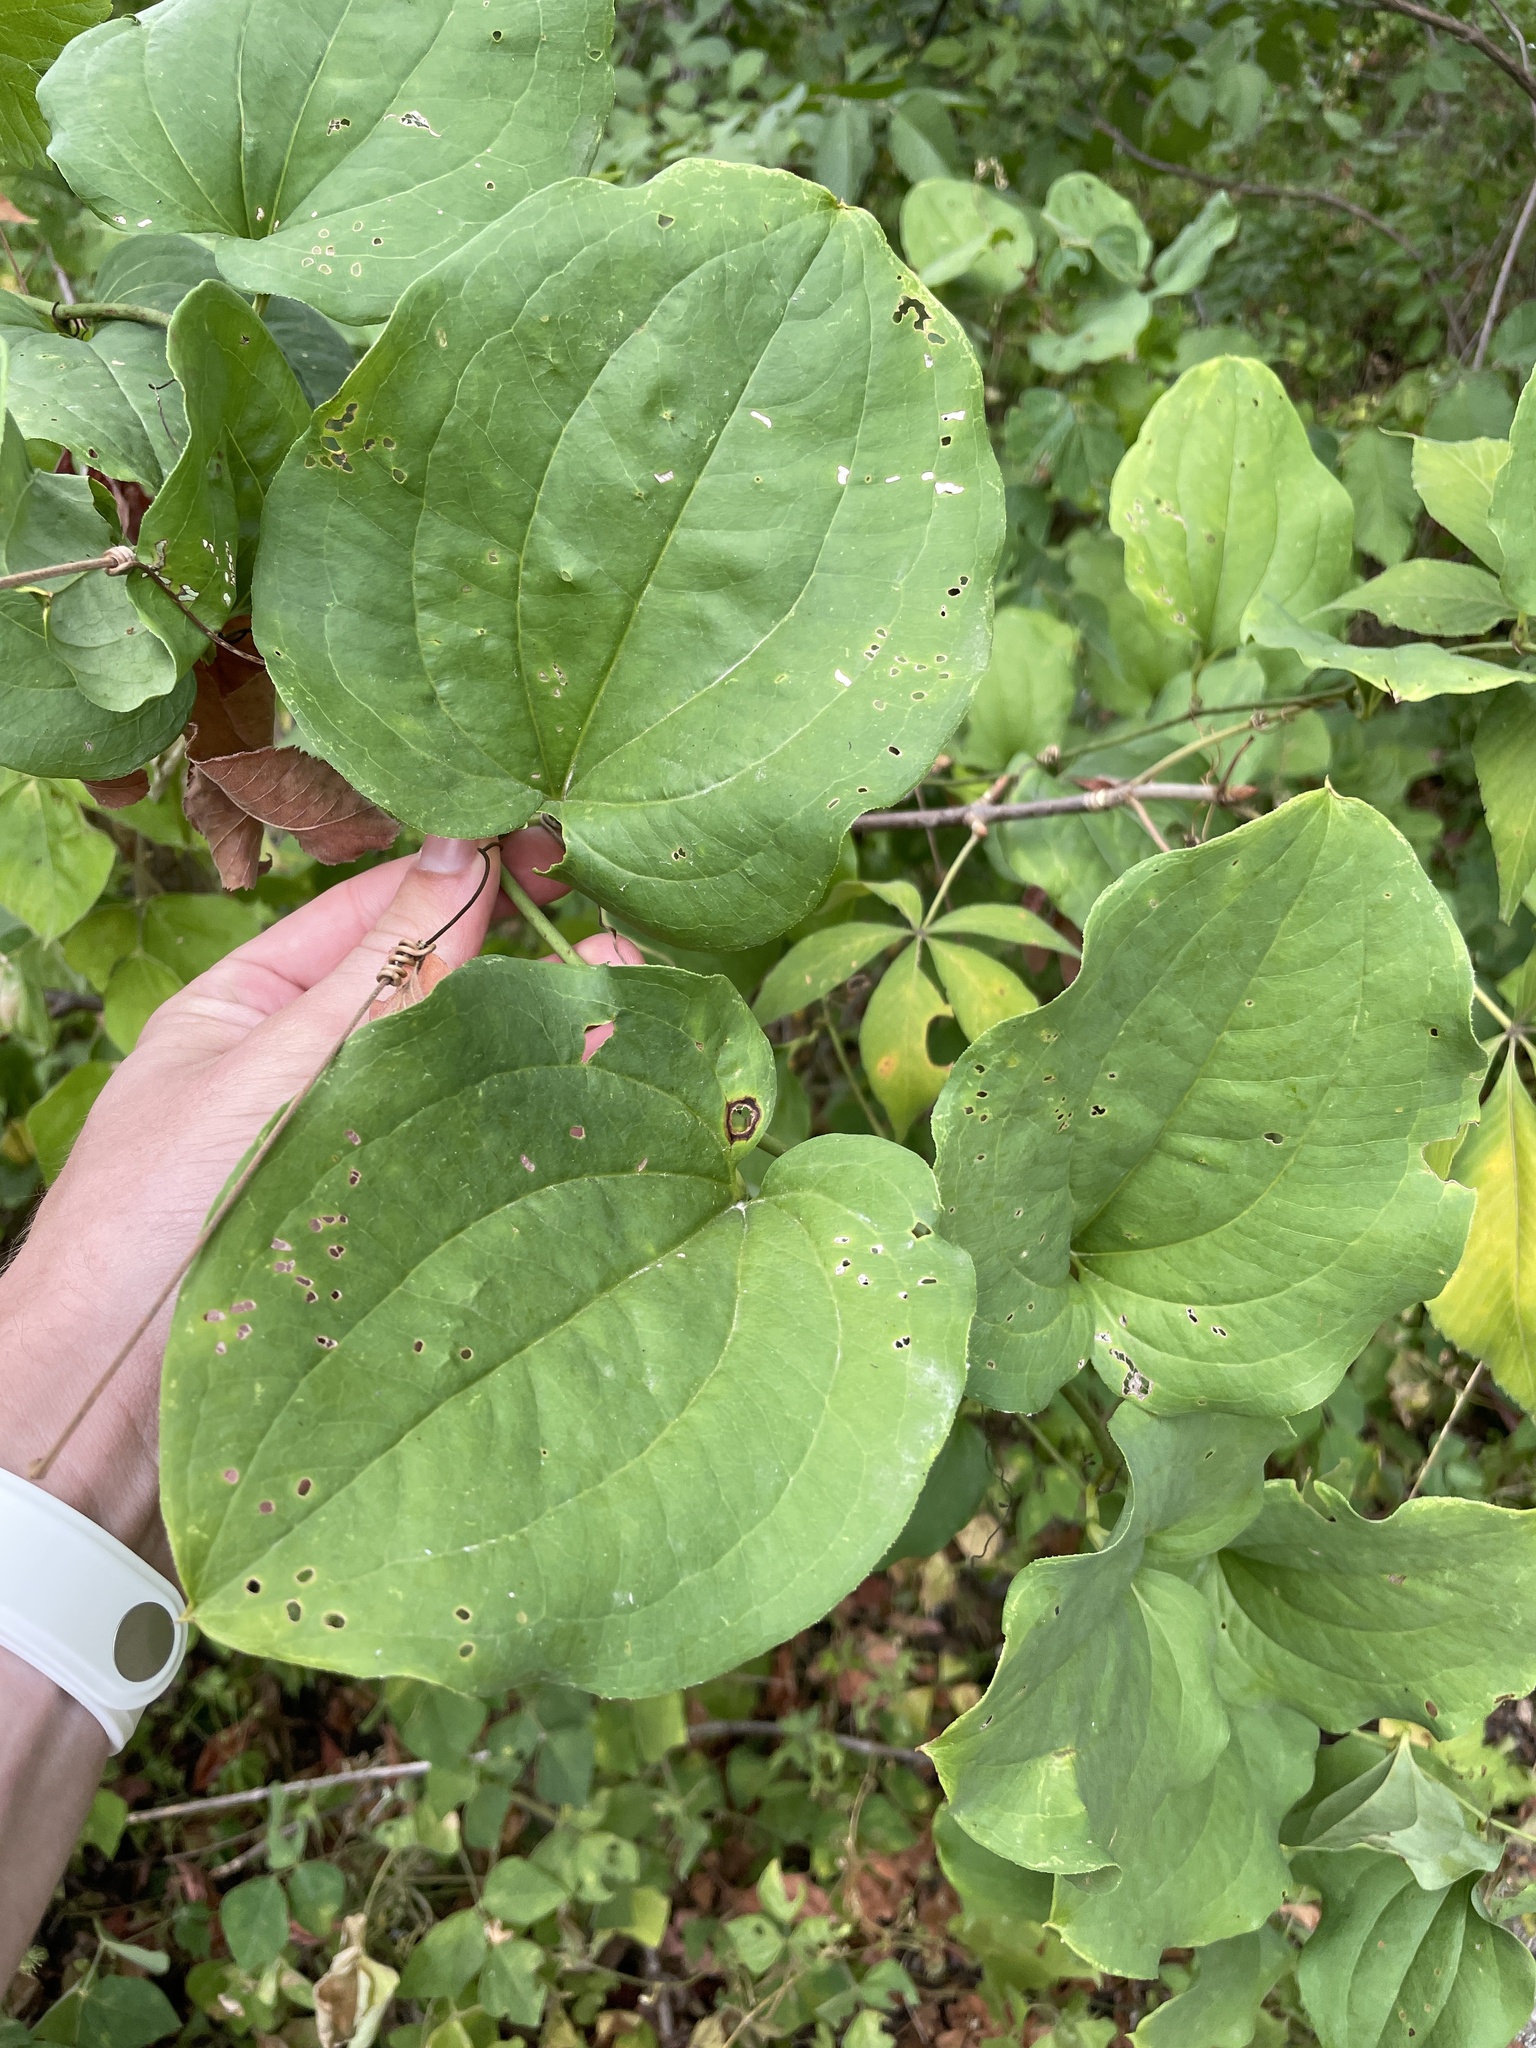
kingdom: Plantae
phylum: Tracheophyta
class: Liliopsida
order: Liliales
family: Smilacaceae
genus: Smilax
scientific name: Smilax tamnoides
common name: Hellfetter
